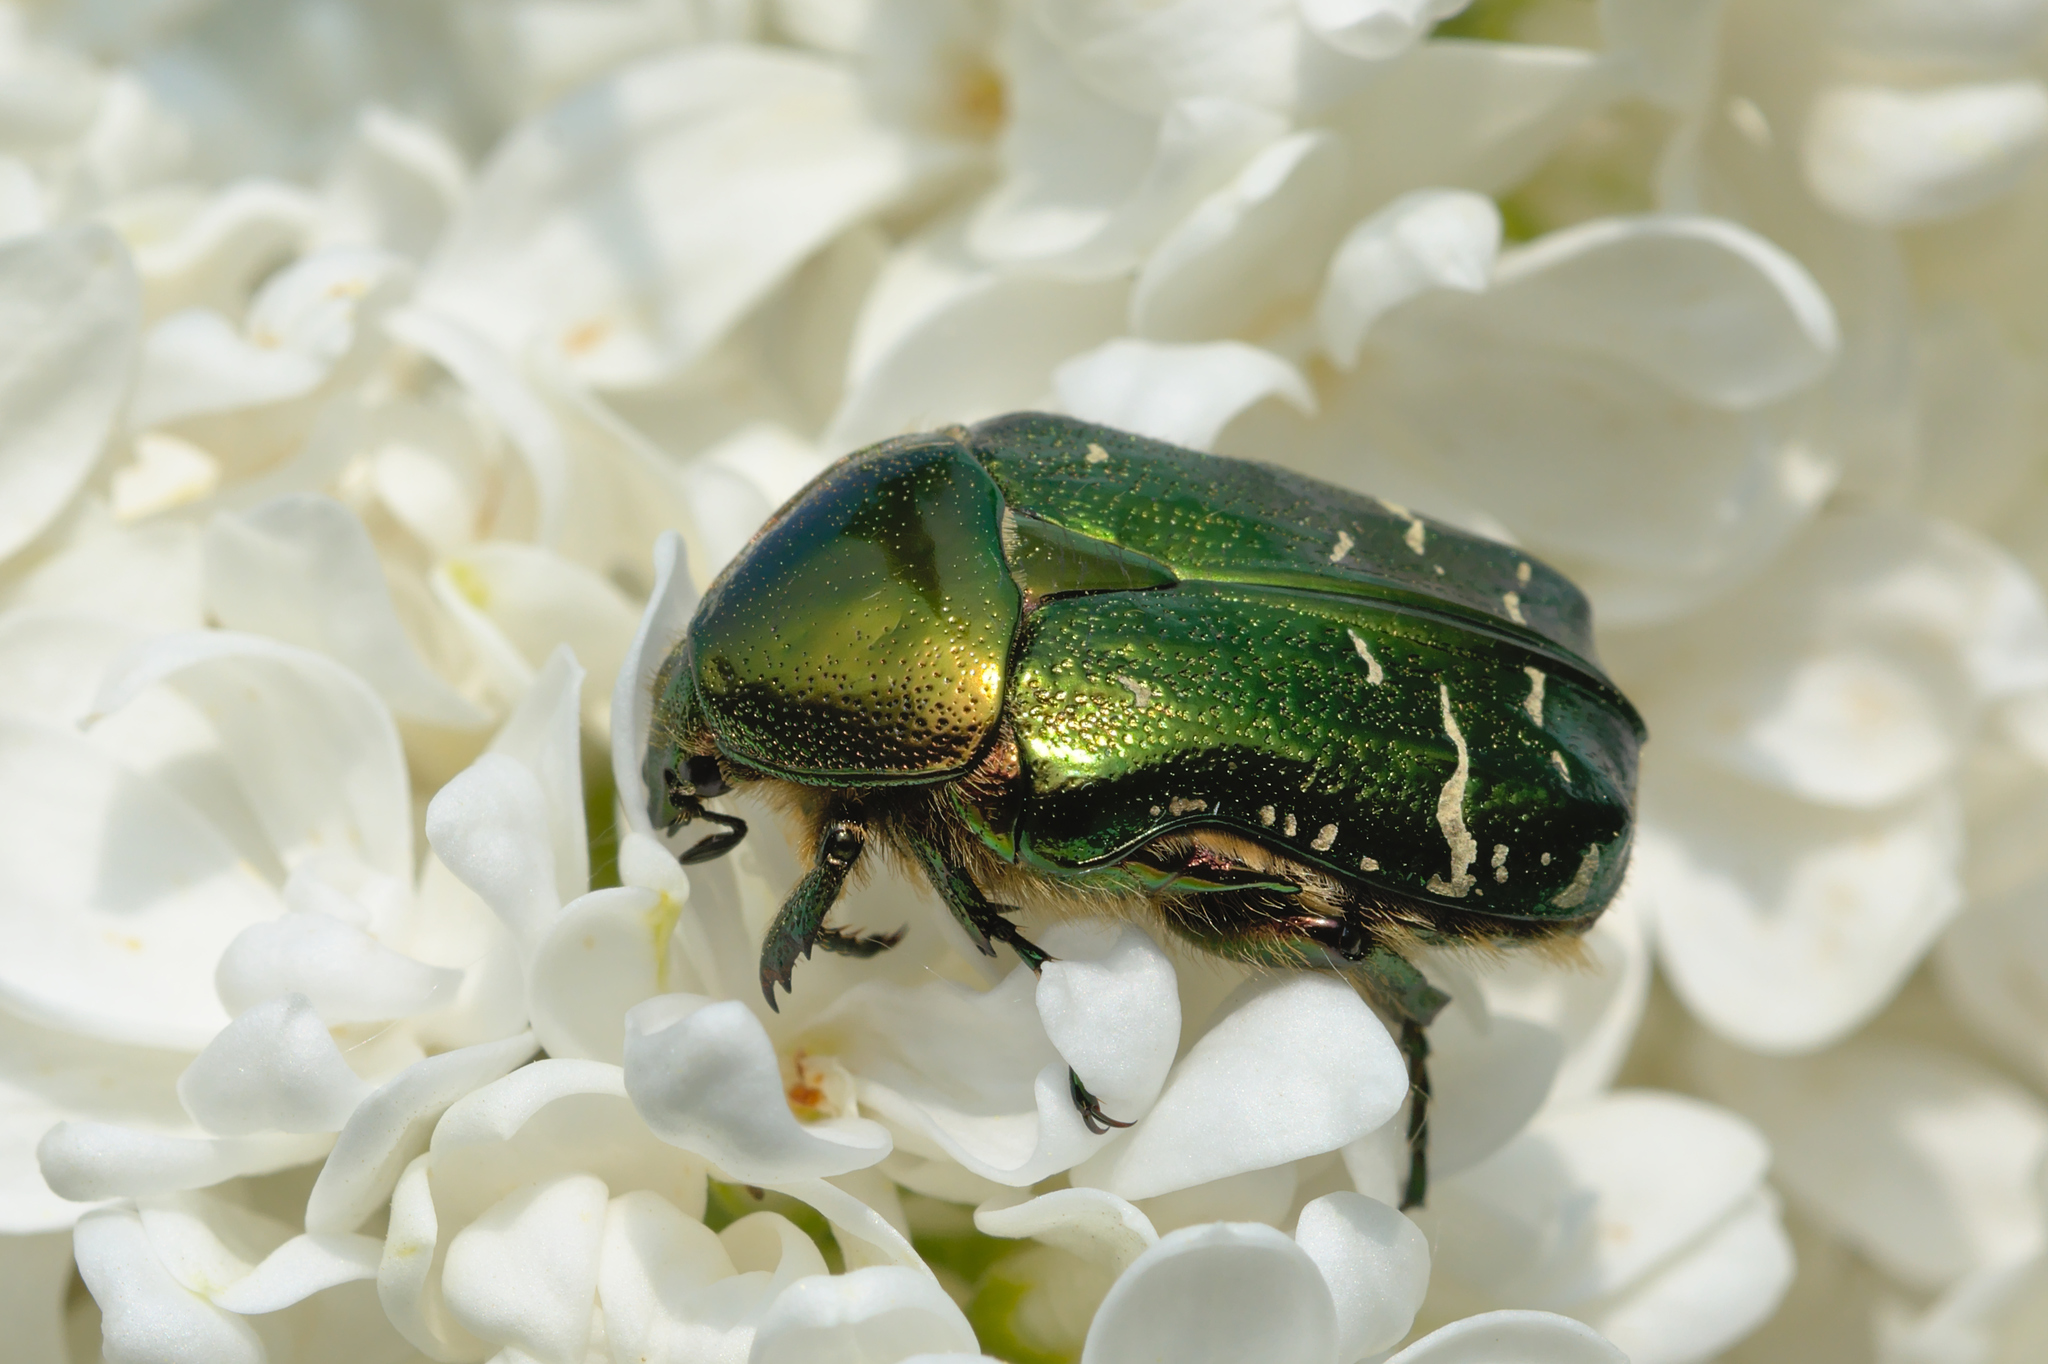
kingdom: Animalia
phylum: Arthropoda
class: Insecta
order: Coleoptera
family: Scarabaeidae
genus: Cetonia
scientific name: Cetonia aurata
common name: Rose chafer
